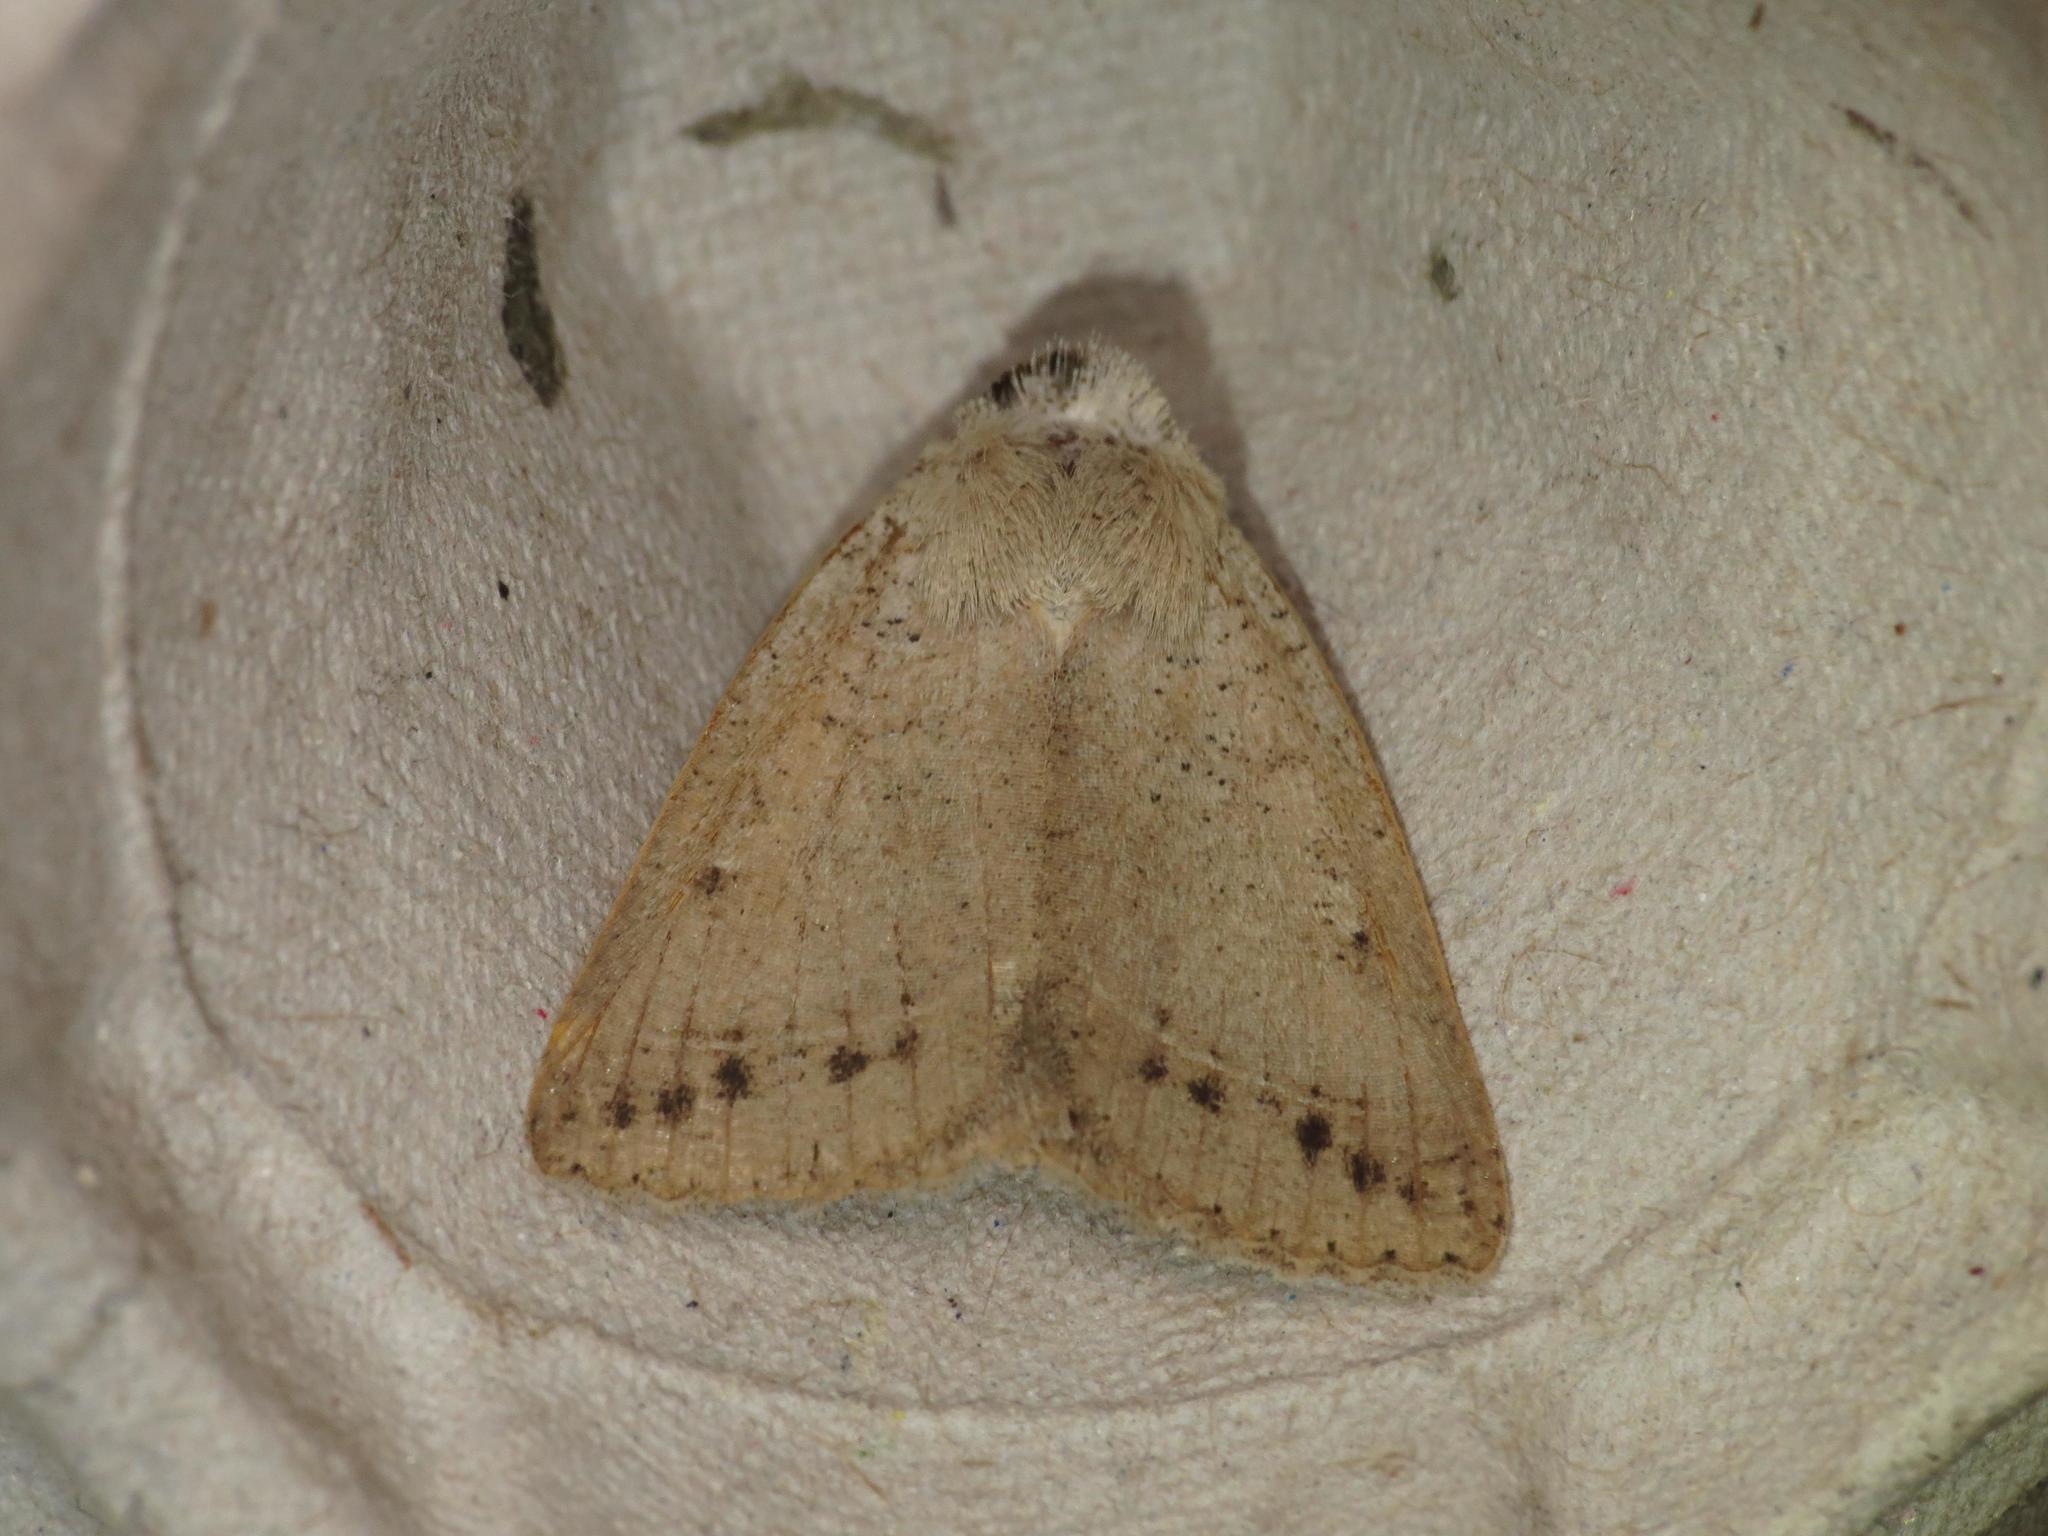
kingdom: Animalia
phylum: Arthropoda
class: Insecta
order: Lepidoptera
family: Erebidae
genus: Pantydia
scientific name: Pantydia capistrata
